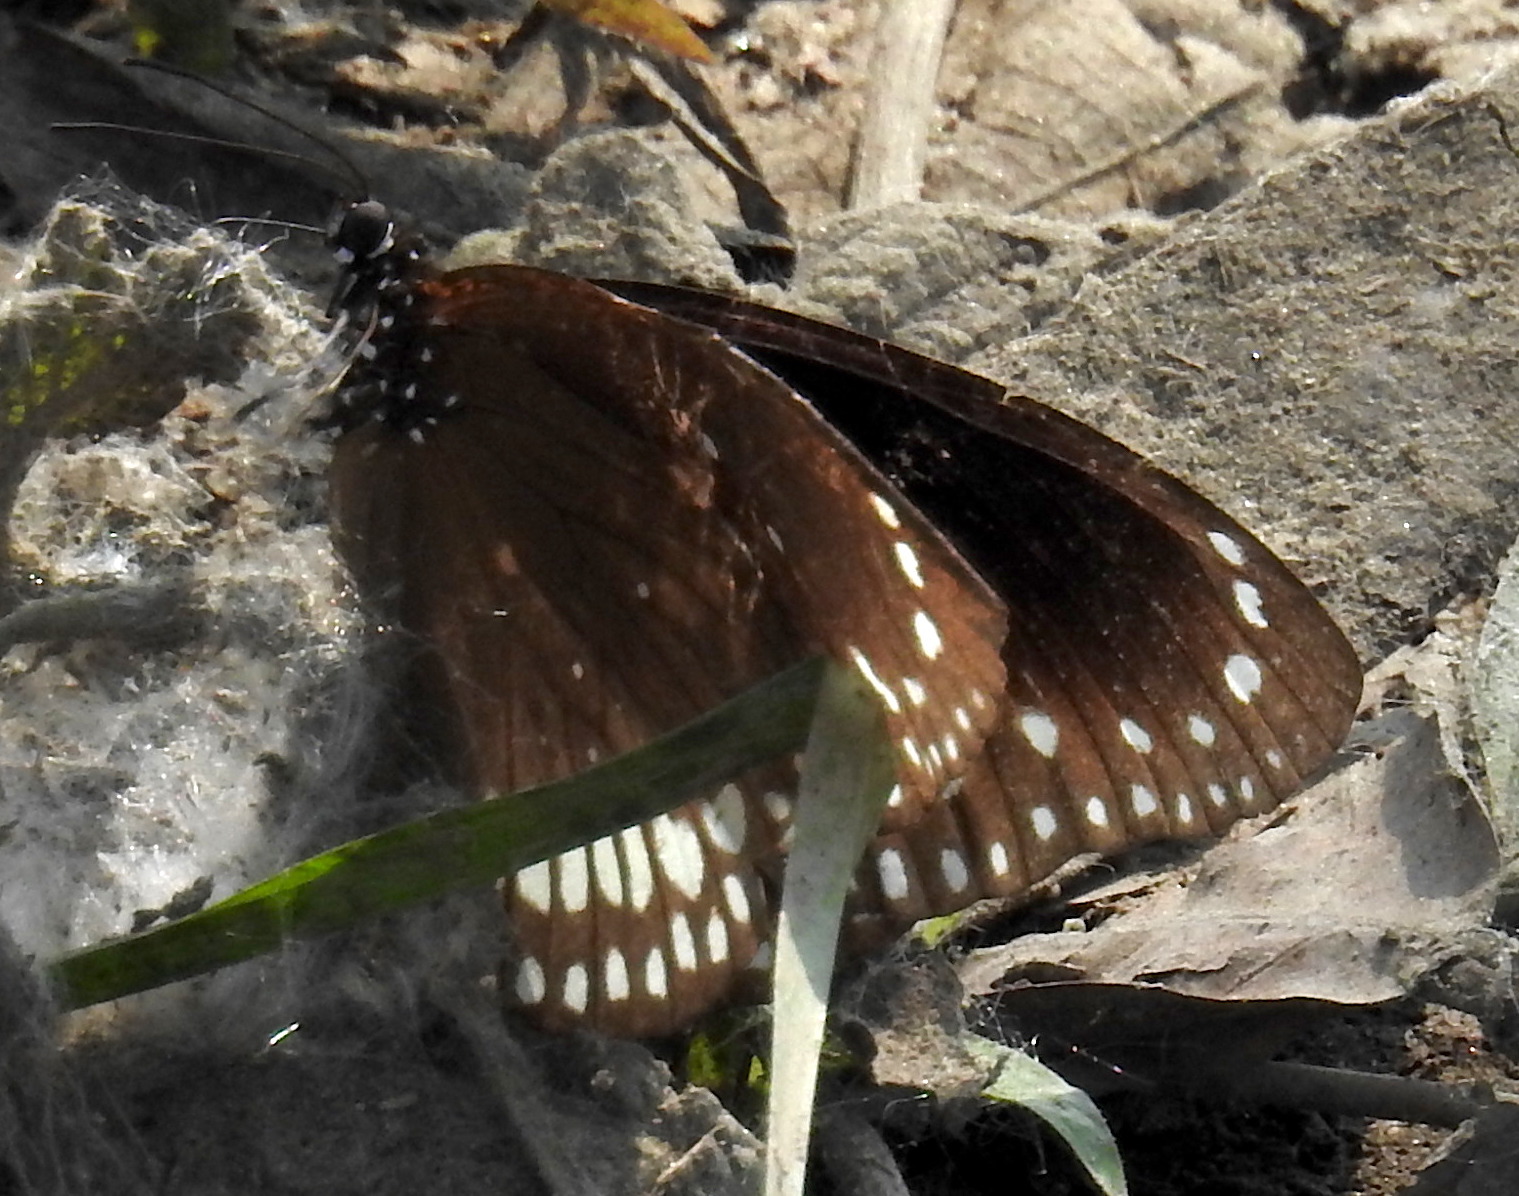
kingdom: Animalia
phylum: Arthropoda
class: Insecta
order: Lepidoptera
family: Nymphalidae
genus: Euploea
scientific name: Euploea core
